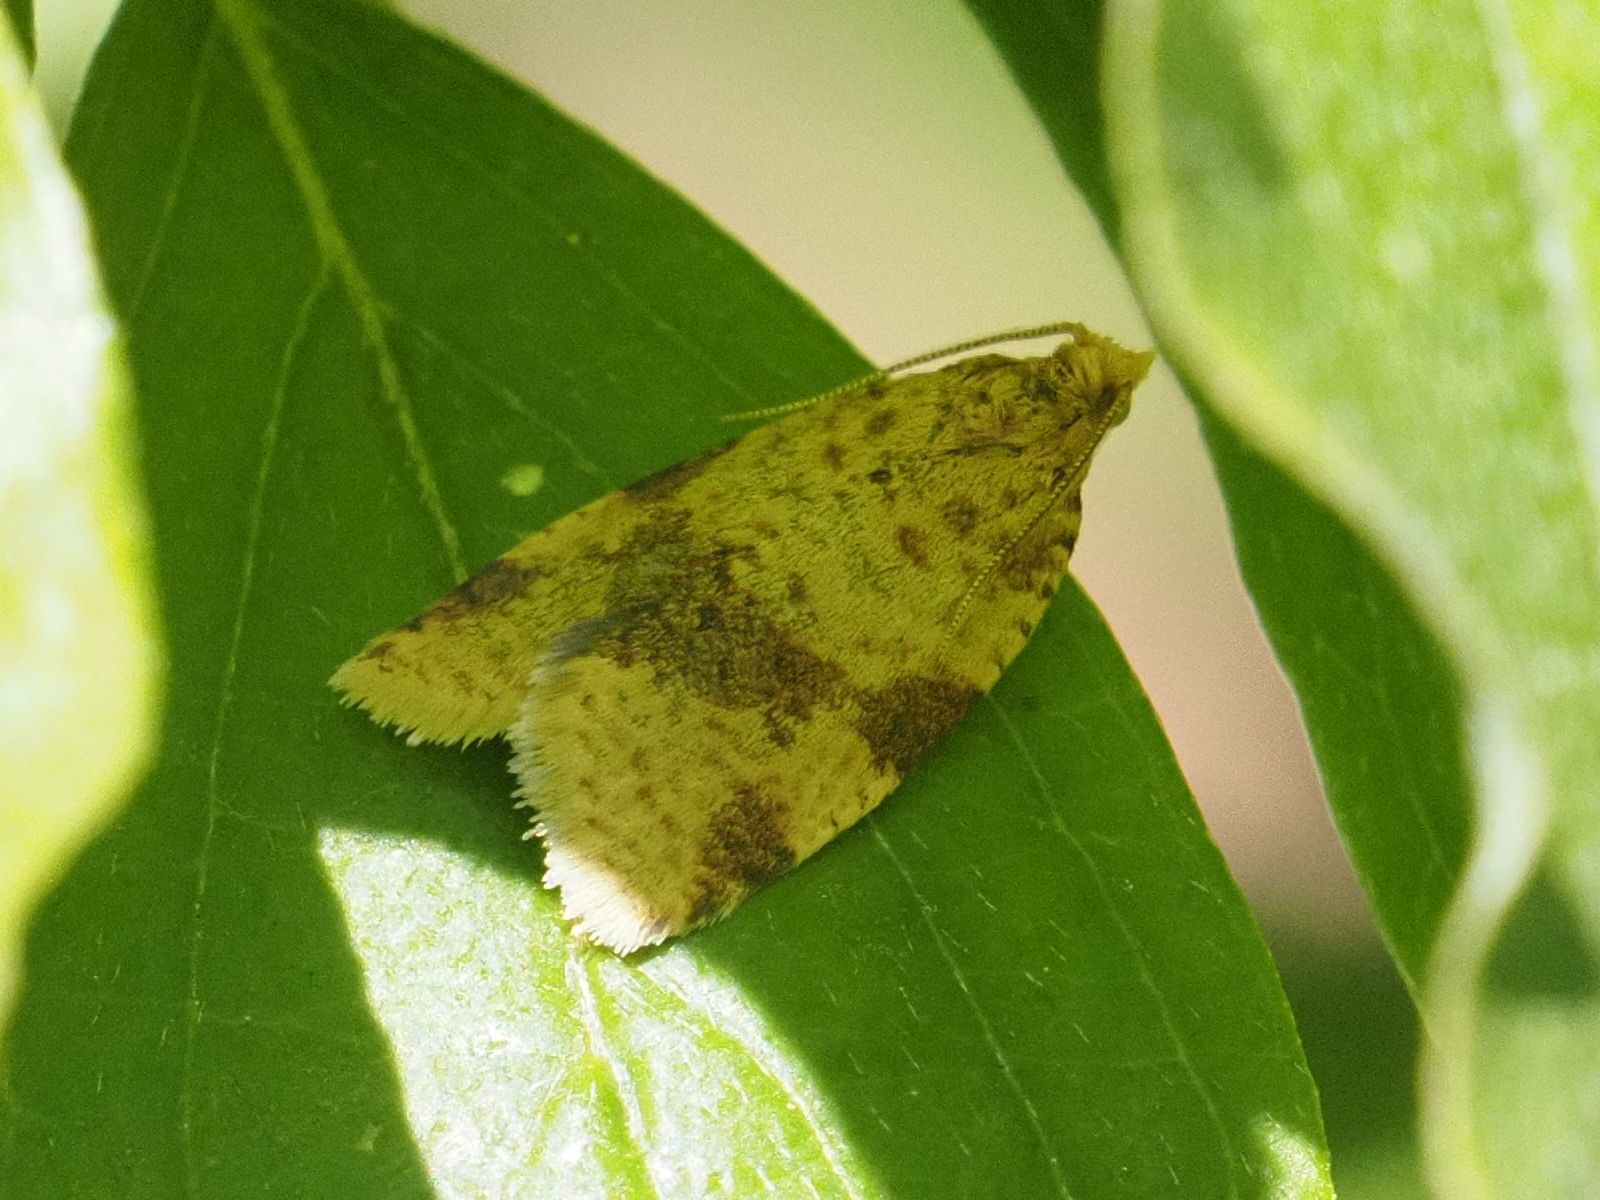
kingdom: Animalia
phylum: Arthropoda
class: Insecta
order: Lepidoptera
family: Tortricidae
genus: Epagoge
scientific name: Epagoge grotiana
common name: Brown-barred twist
